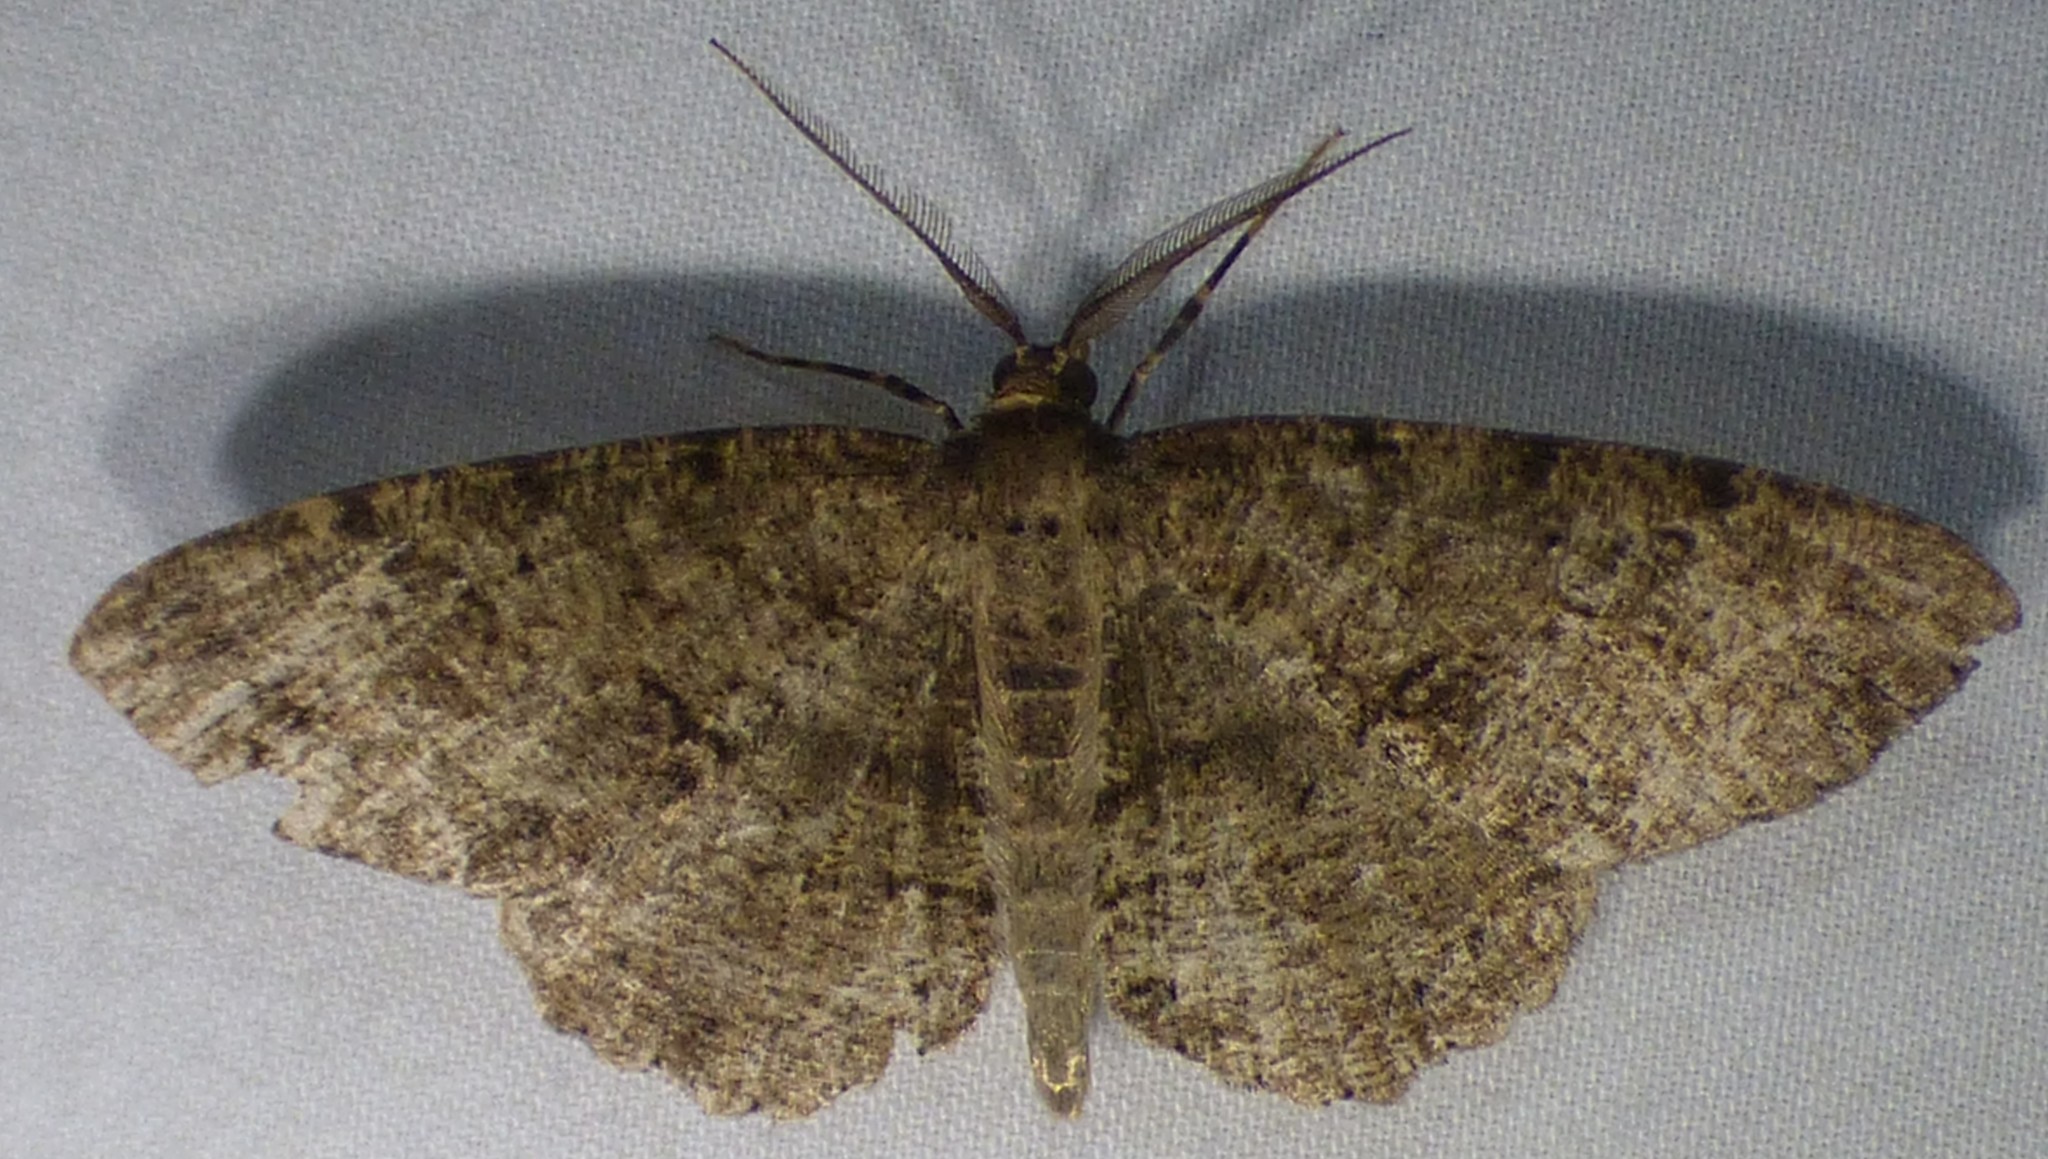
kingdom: Animalia
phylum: Arthropoda
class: Insecta
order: Lepidoptera
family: Geometridae
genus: Melanolophia
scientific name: Melanolophia canadaria
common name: Canadian melanolophia
